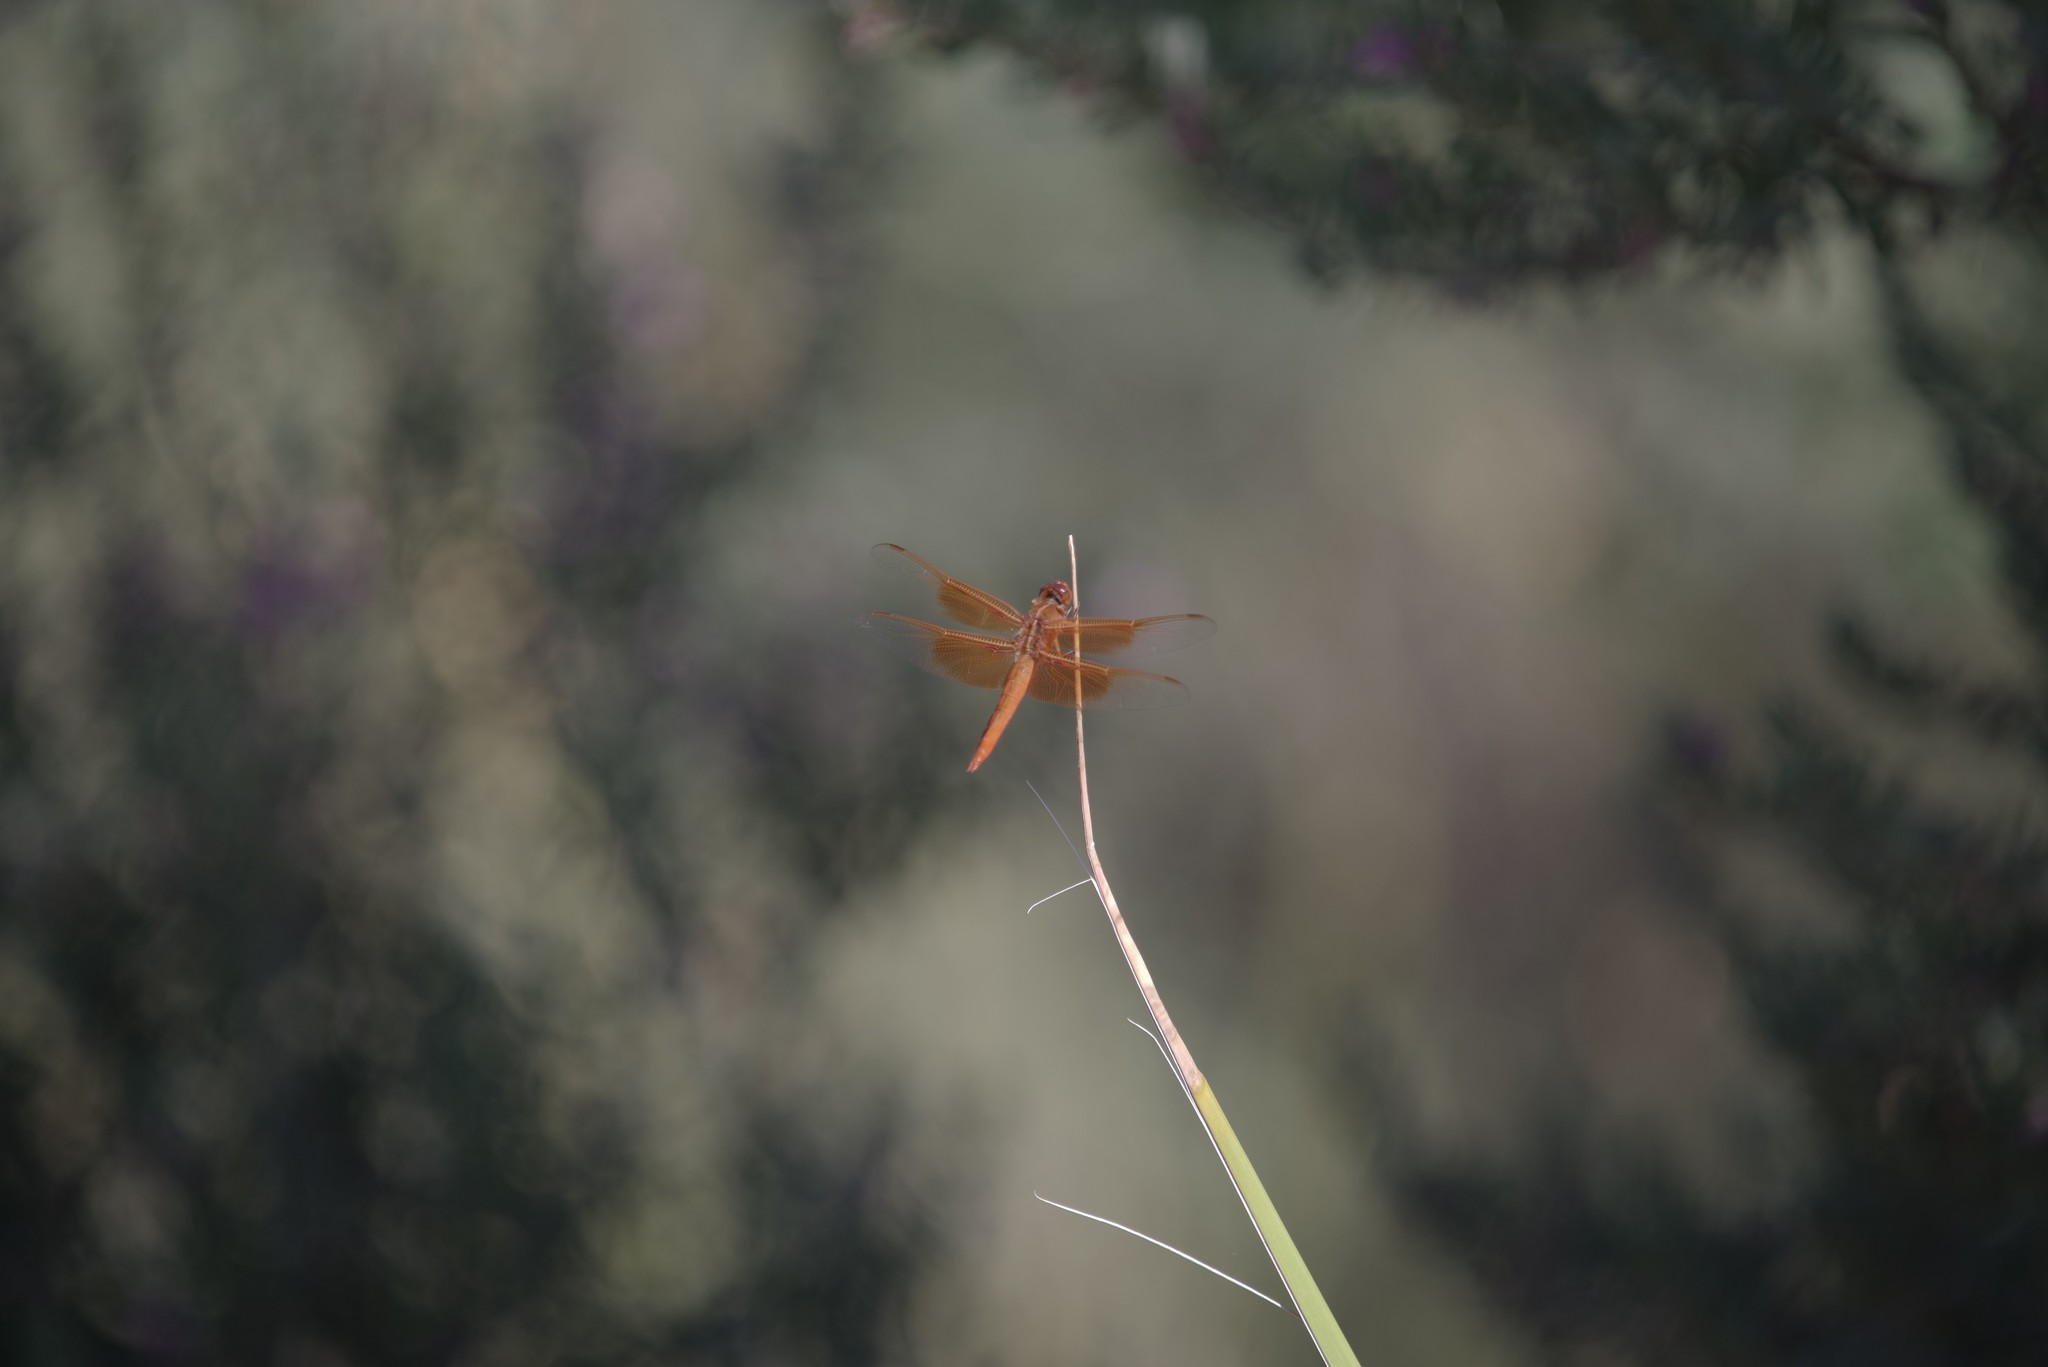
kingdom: Animalia
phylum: Arthropoda
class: Insecta
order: Odonata
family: Libellulidae
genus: Libellula
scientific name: Libellula saturata
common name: Flame skimmer
